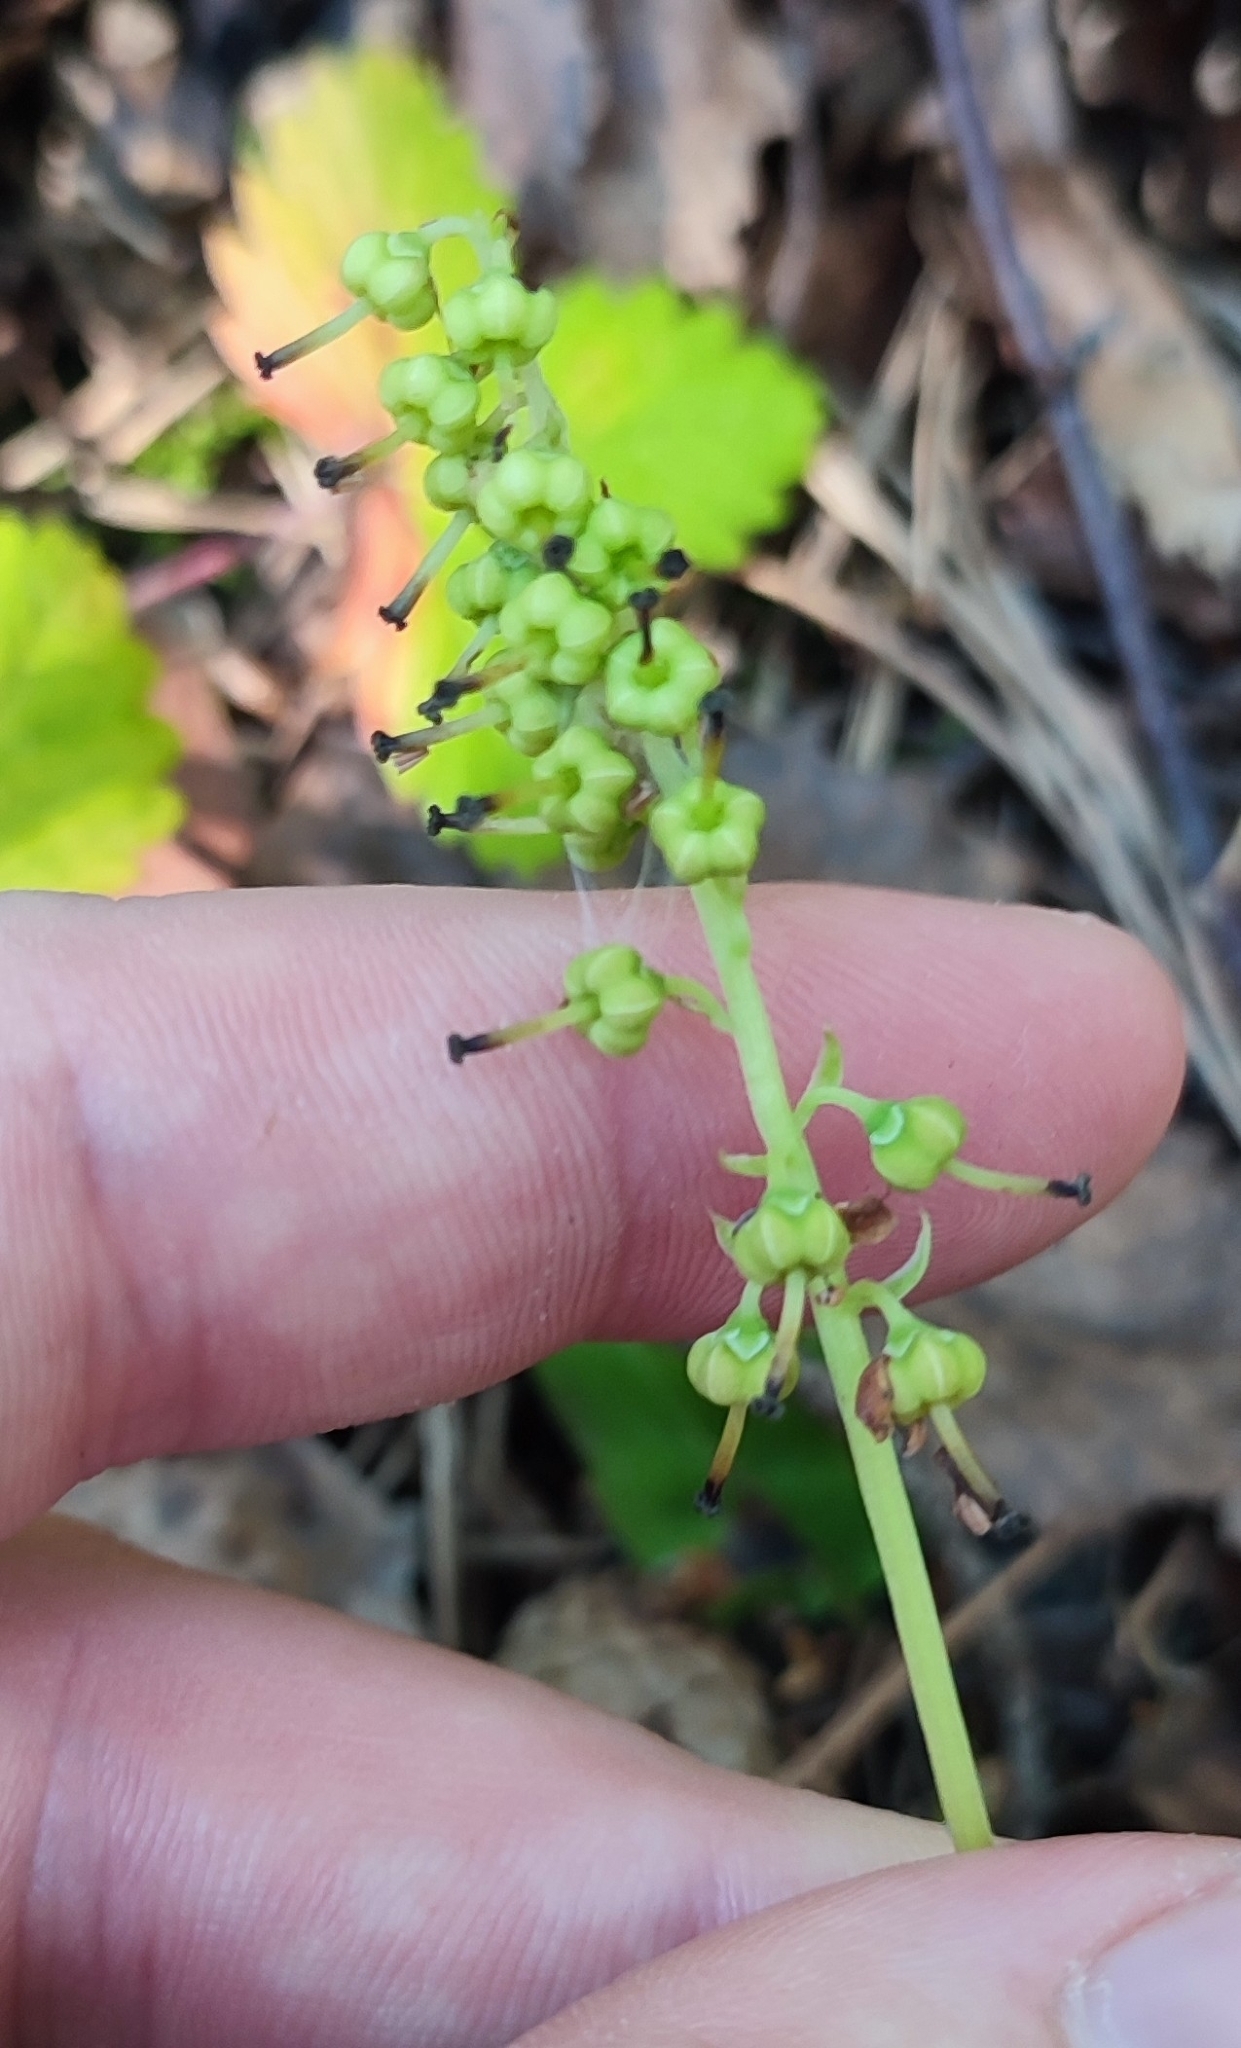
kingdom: Plantae
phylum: Tracheophyta
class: Magnoliopsida
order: Ericales
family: Ericaceae
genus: Orthilia
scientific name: Orthilia secunda
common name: One-sided orthilia
